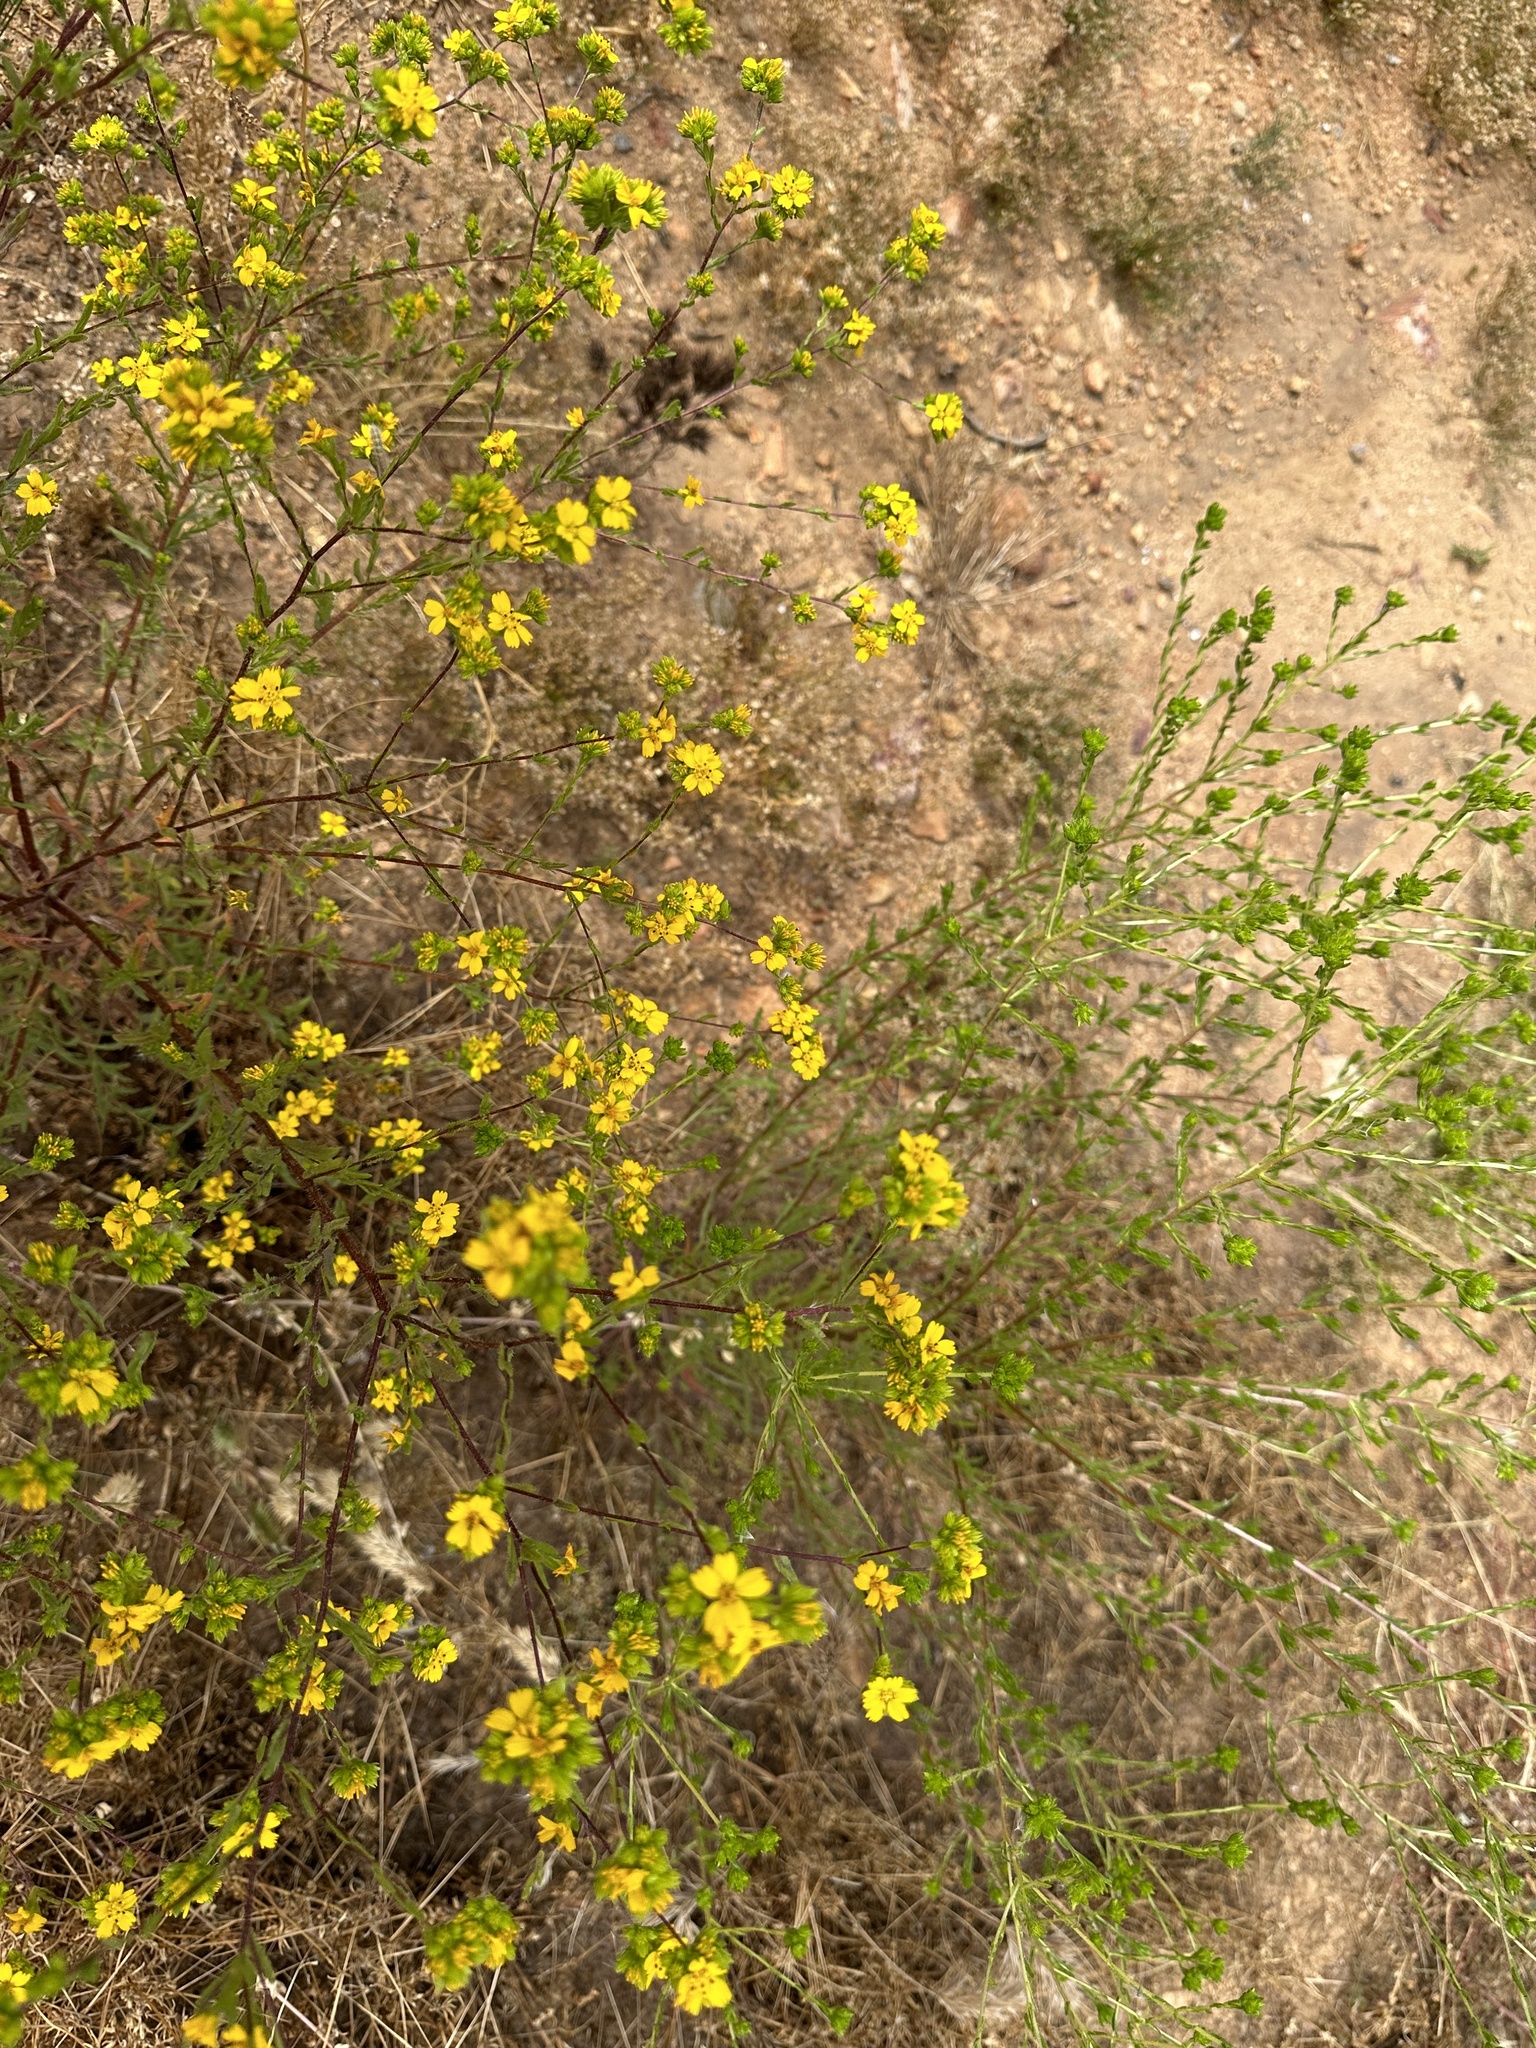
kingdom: Plantae
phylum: Tracheophyta
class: Magnoliopsida
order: Asterales
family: Asteraceae
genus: Deinandra
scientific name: Deinandra fasciculata
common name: Clustered tarweed
